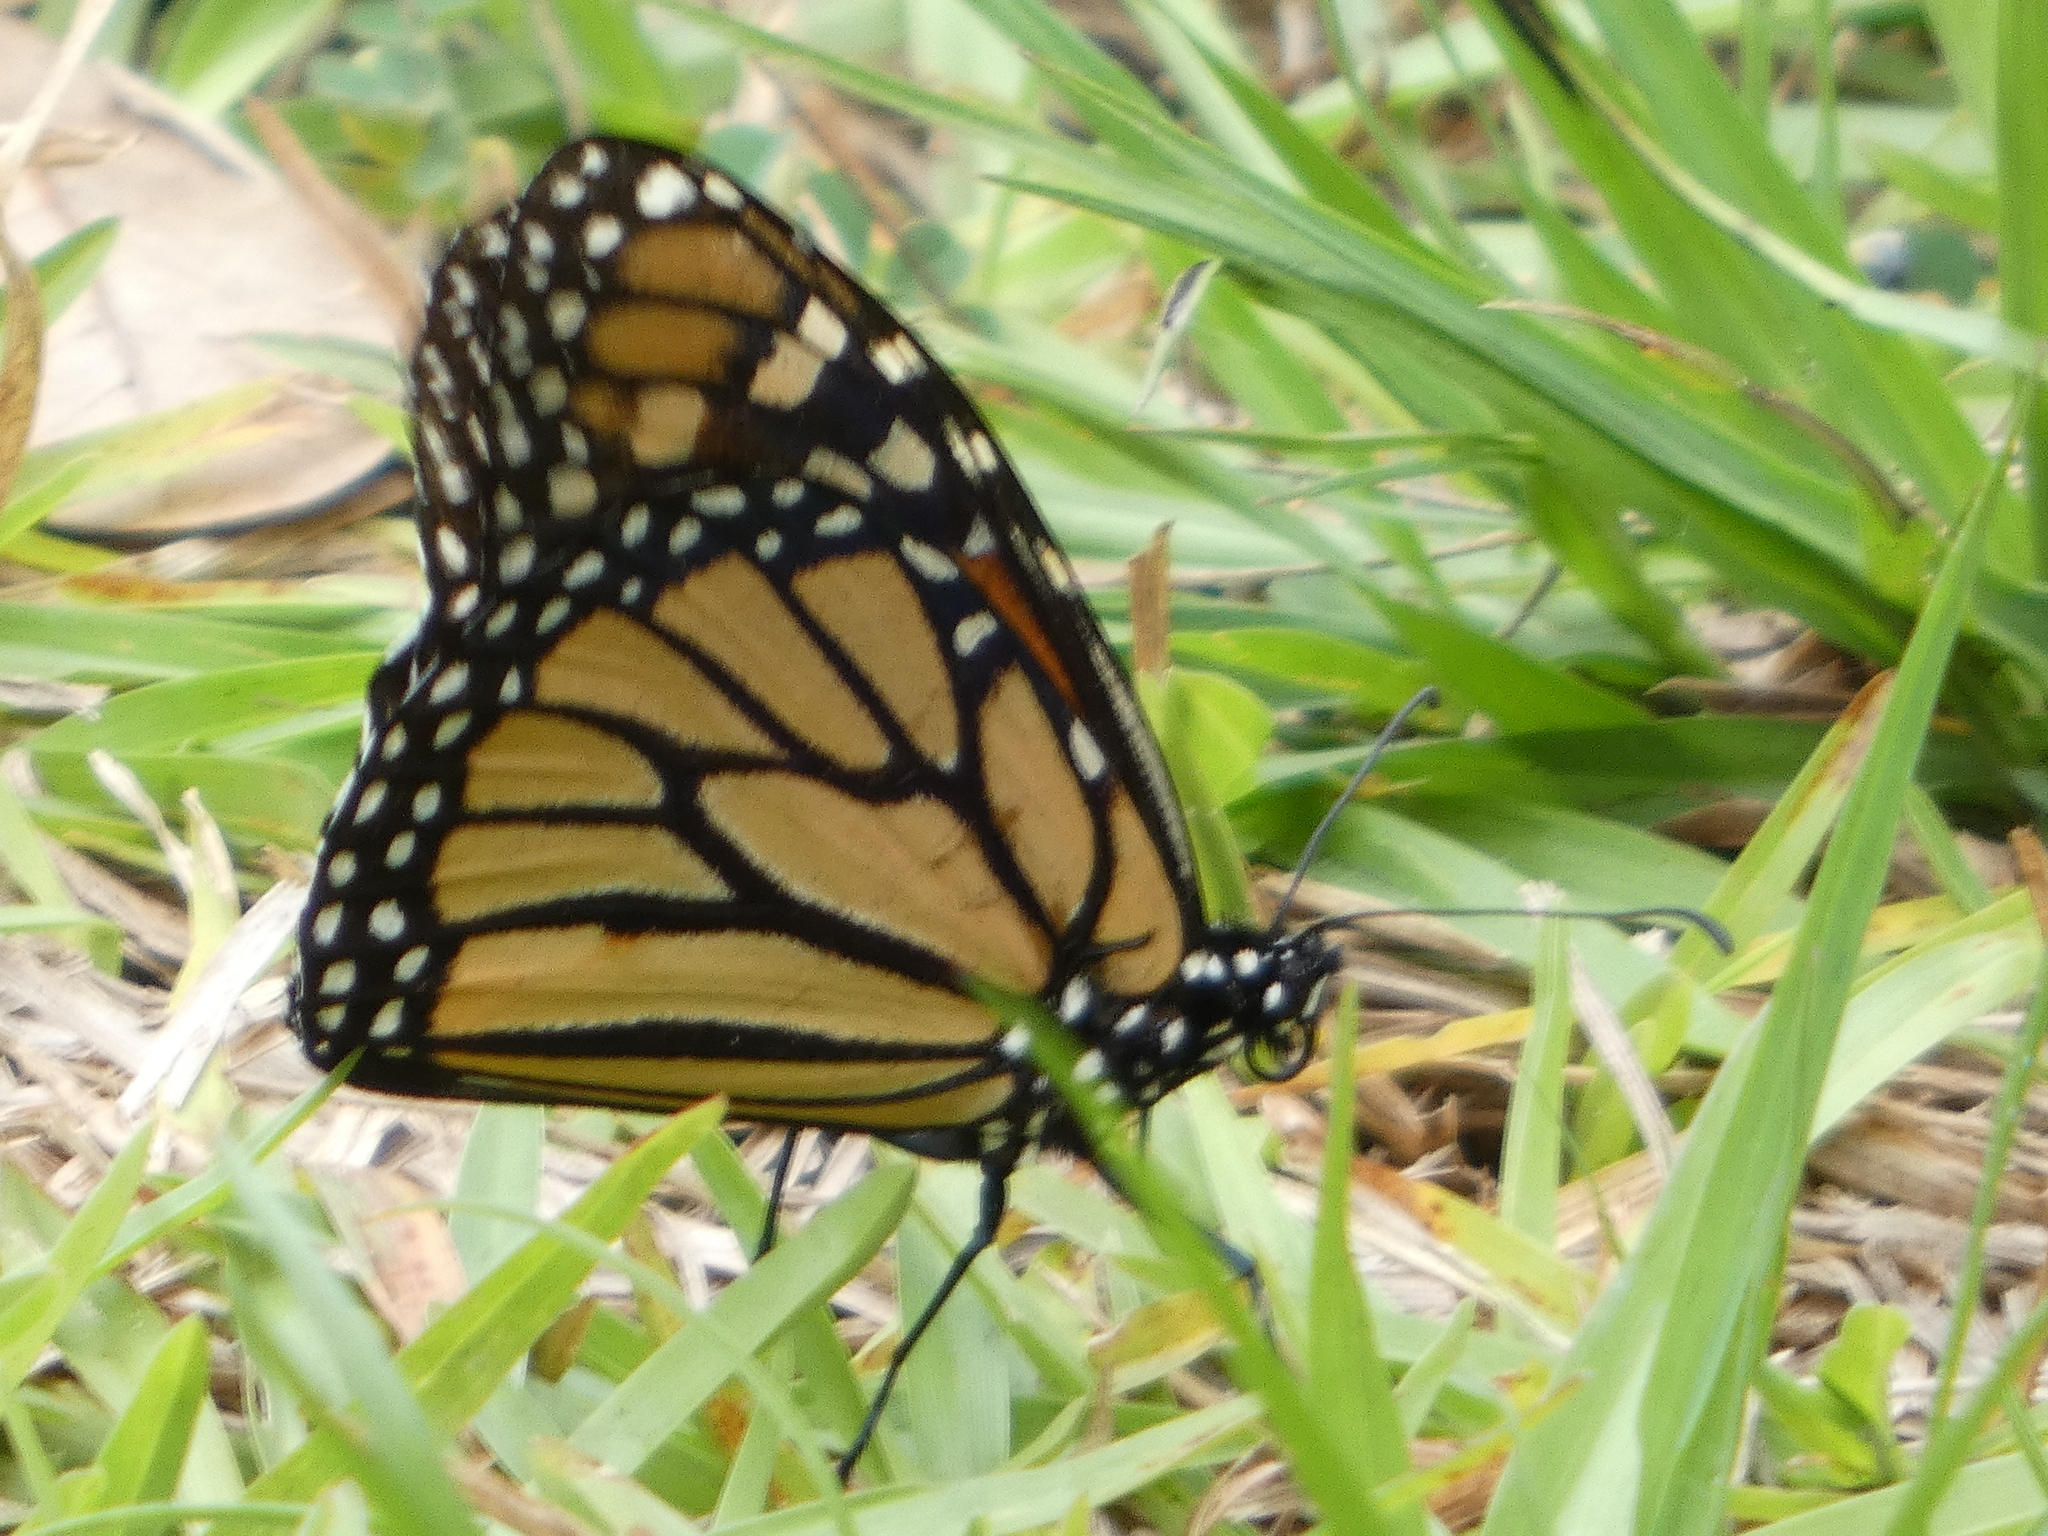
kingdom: Animalia
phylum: Arthropoda
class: Insecta
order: Lepidoptera
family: Nymphalidae
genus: Danaus
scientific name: Danaus plexippus
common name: Monarch
